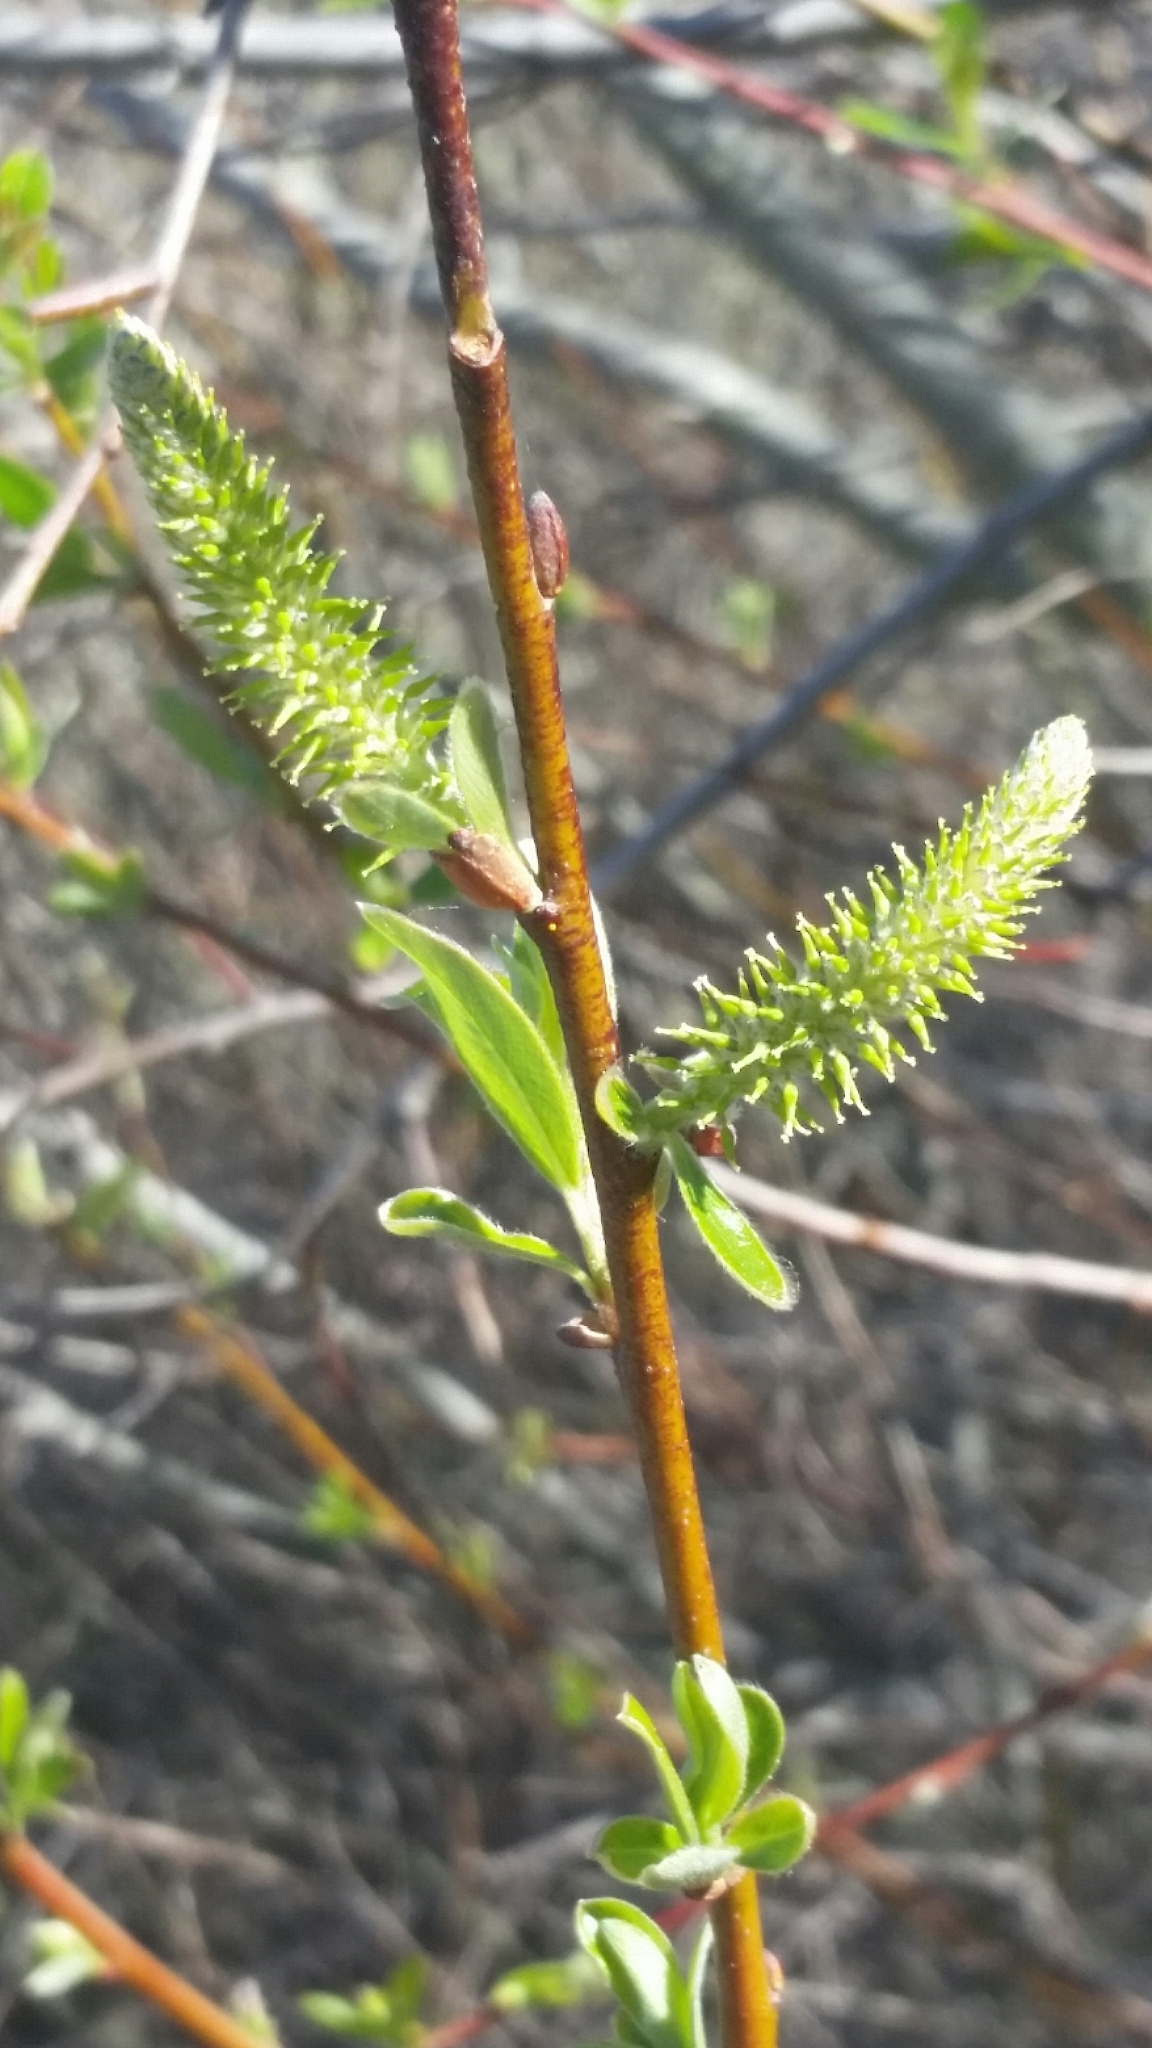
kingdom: Plantae
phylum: Tracheophyta
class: Magnoliopsida
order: Malpighiales
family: Salicaceae
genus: Salix
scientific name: Salix lasiolepis
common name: Arroyo willow
